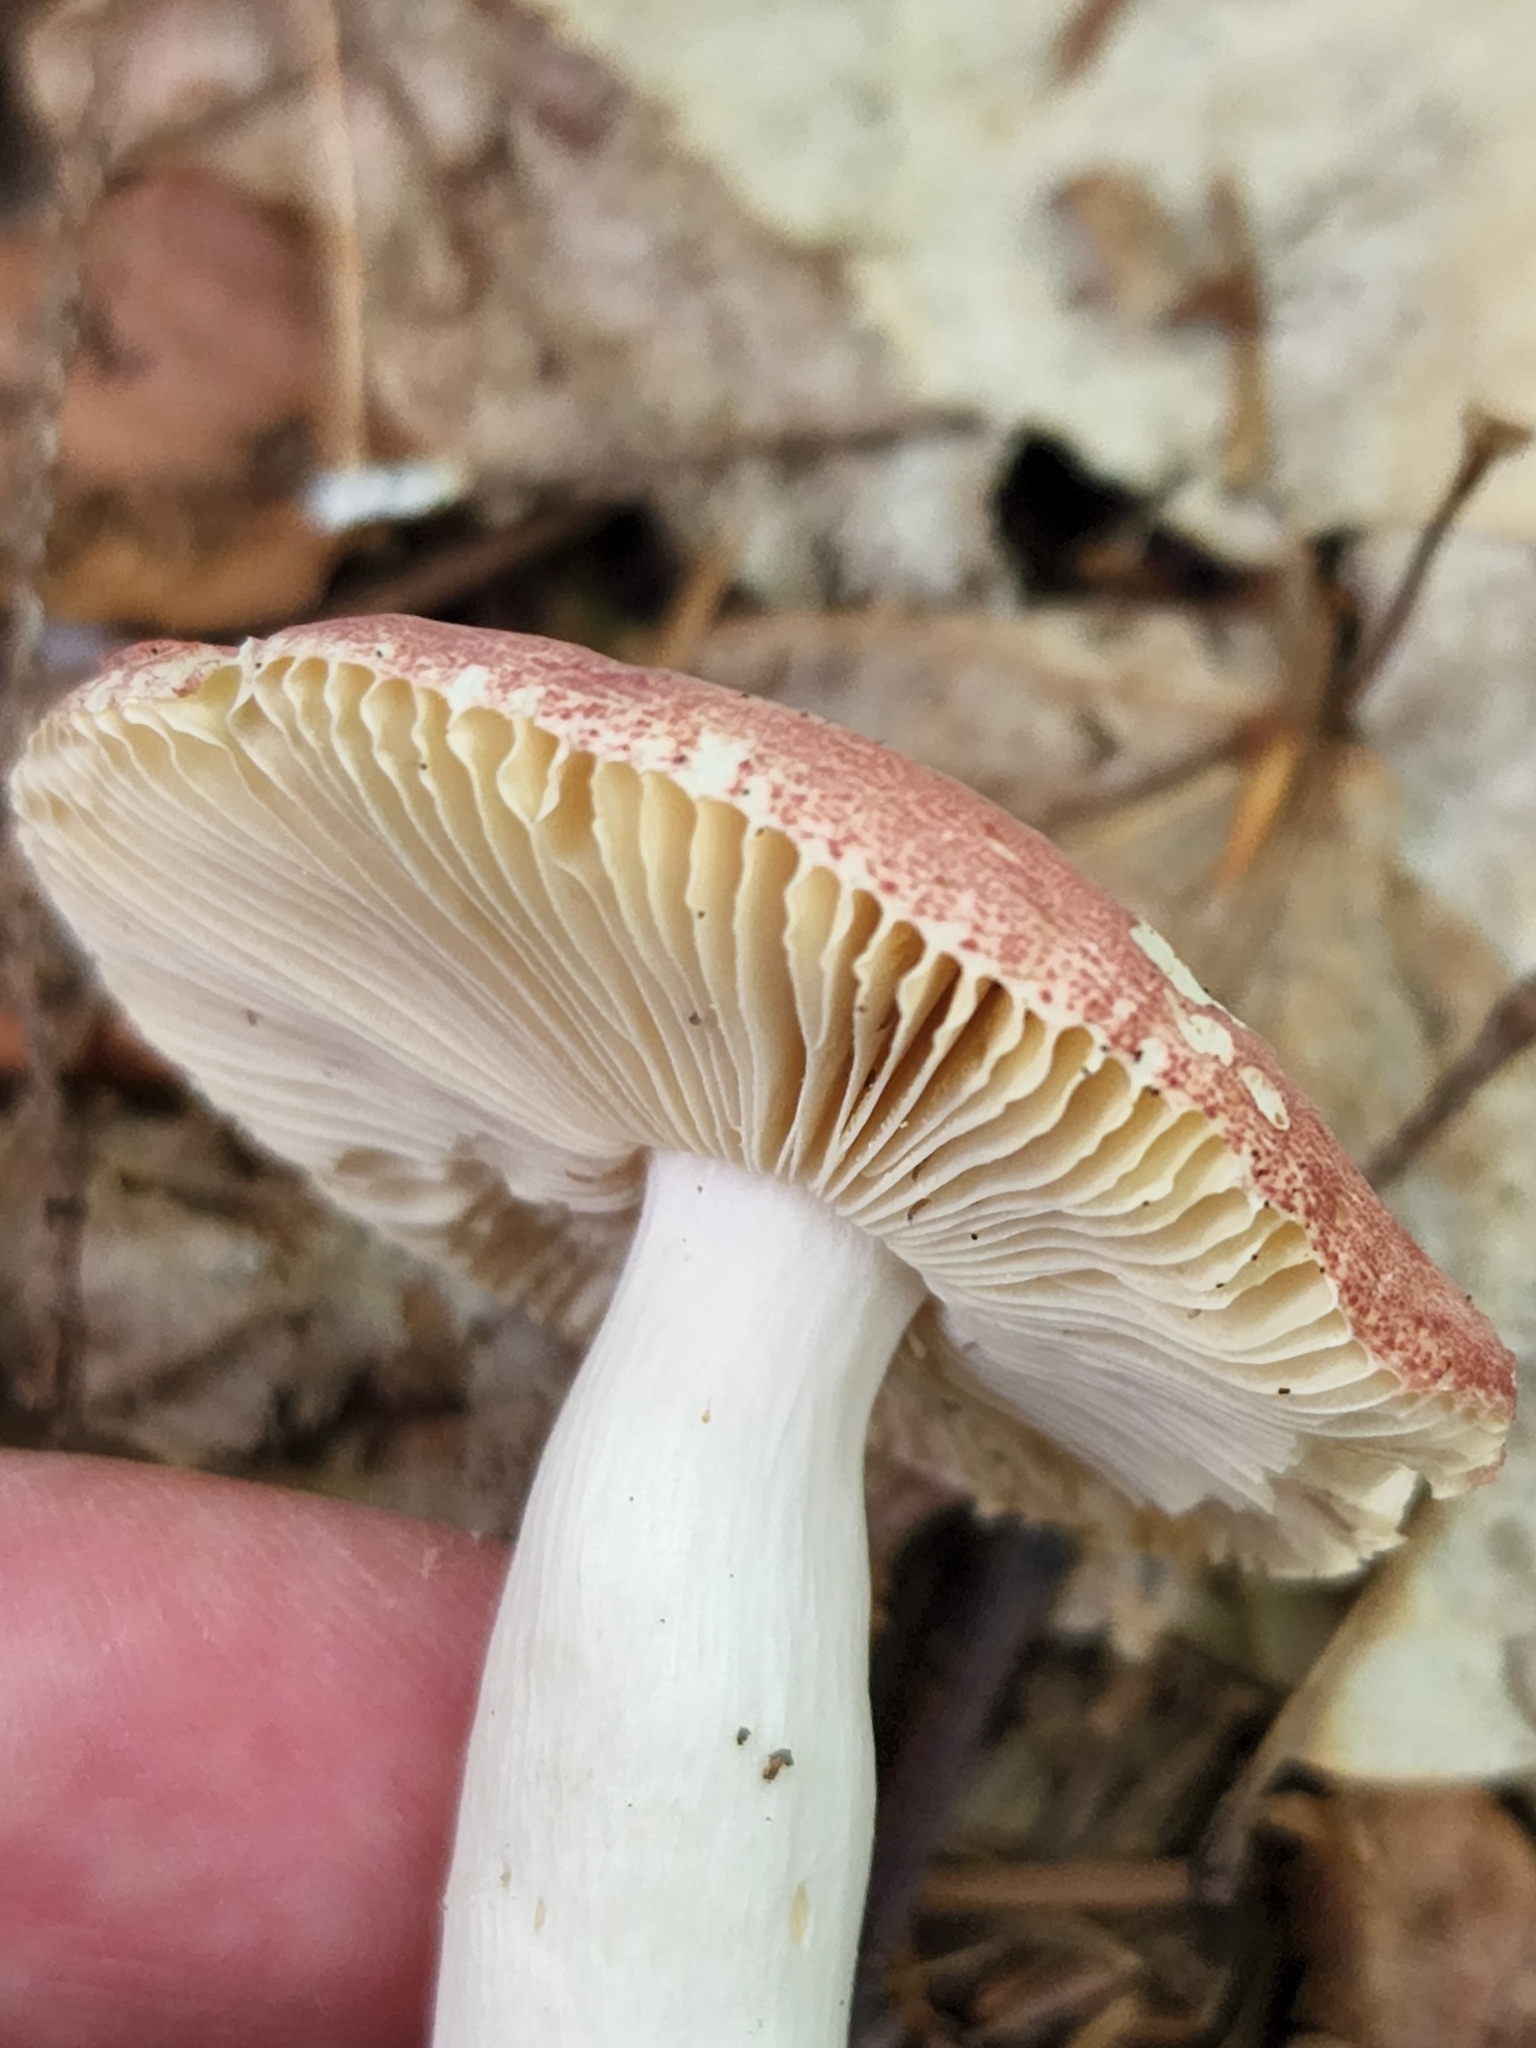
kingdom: Fungi
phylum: Basidiomycota
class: Agaricomycetes
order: Russulales
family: Russulaceae
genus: Russula
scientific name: Russula
